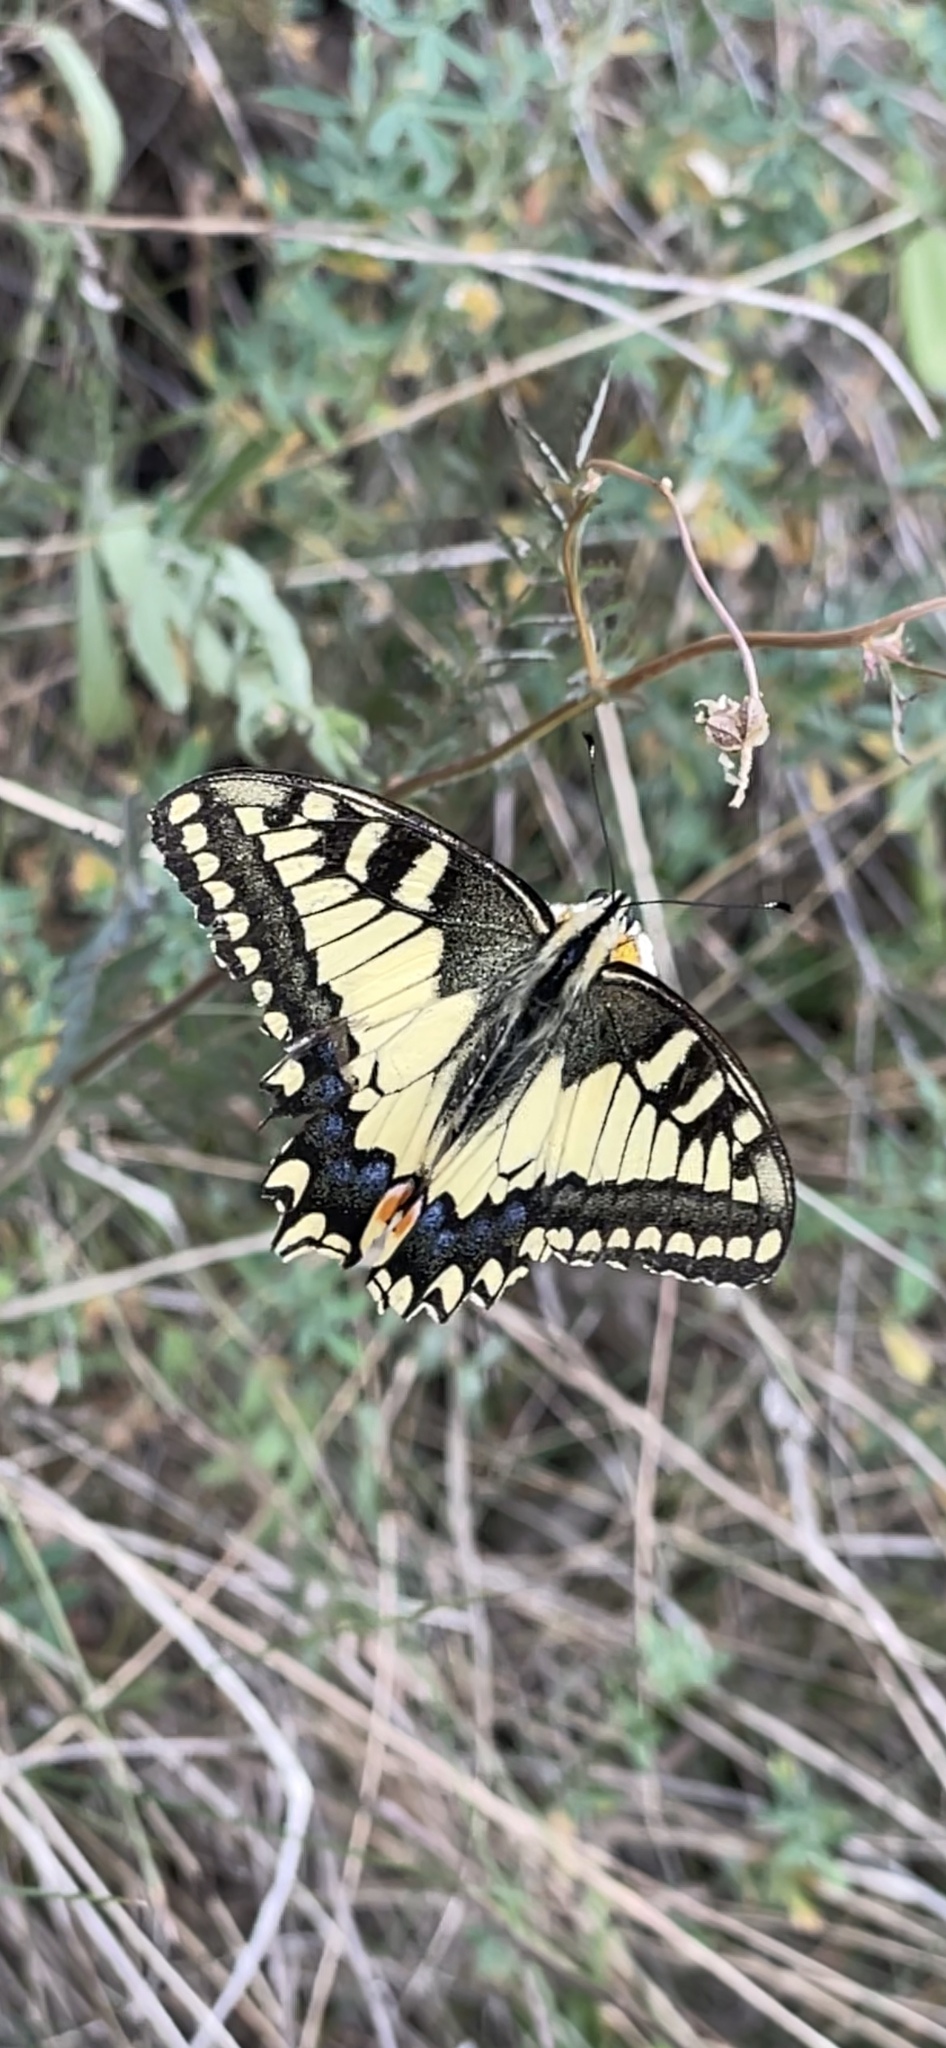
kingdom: Animalia
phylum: Arthropoda
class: Insecta
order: Lepidoptera
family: Papilionidae
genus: Papilio
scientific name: Papilio machaon
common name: Swallowtail
